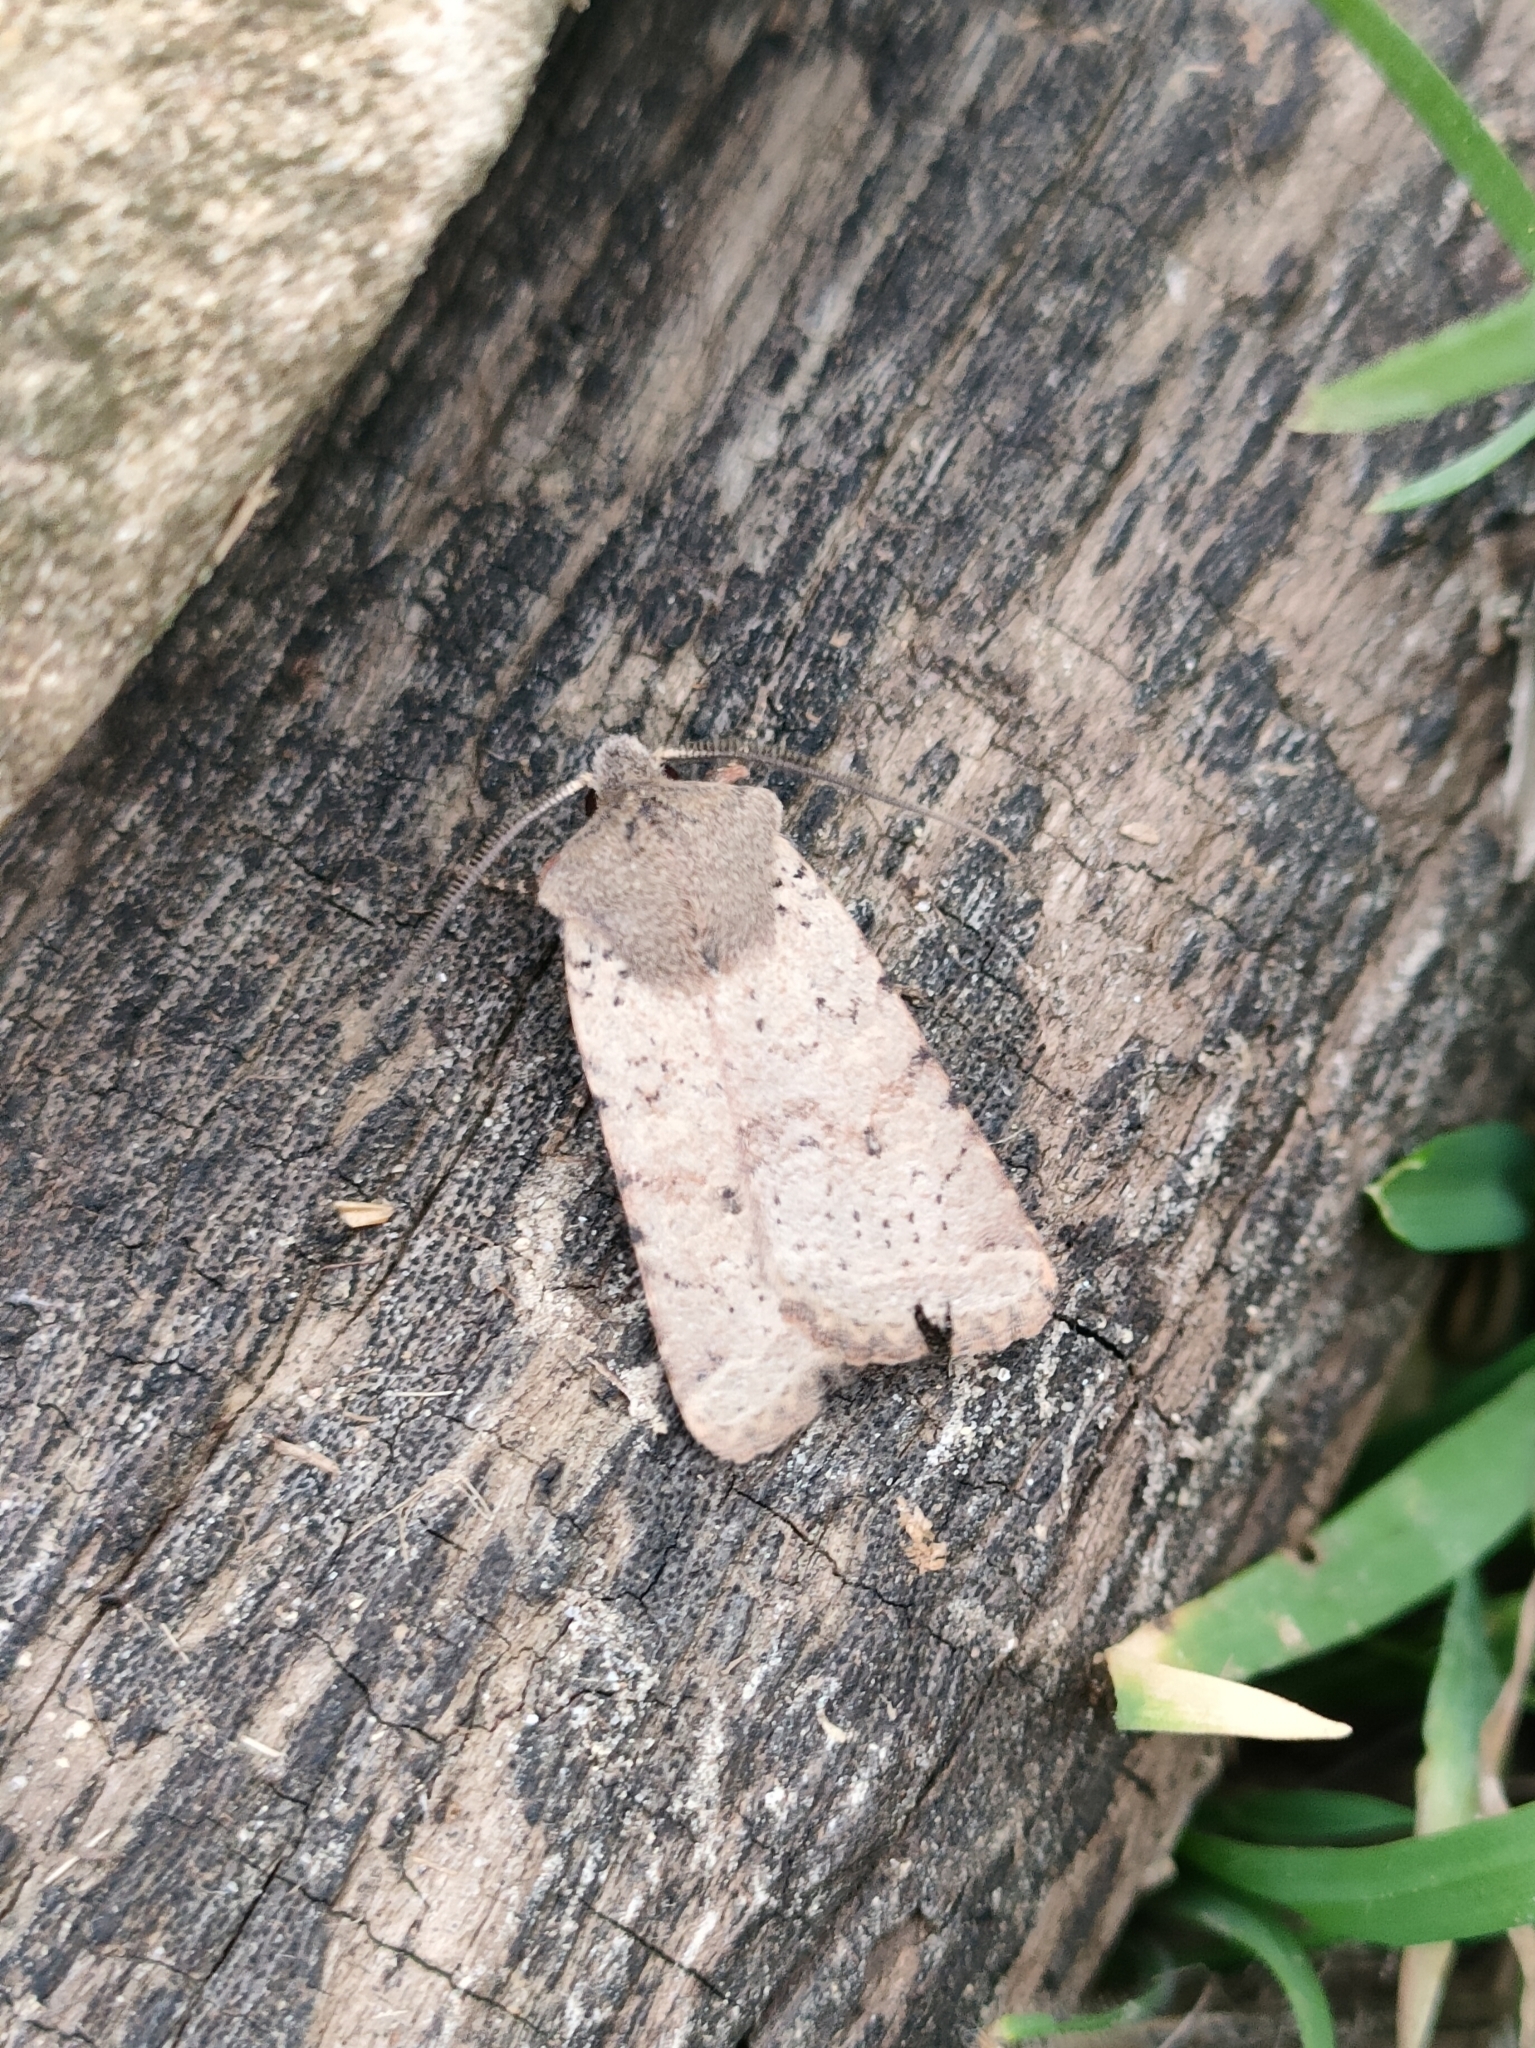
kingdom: Animalia
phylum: Arthropoda
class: Insecta
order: Lepidoptera
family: Noctuidae
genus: Agrochola
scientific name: Agrochola ruticilla
